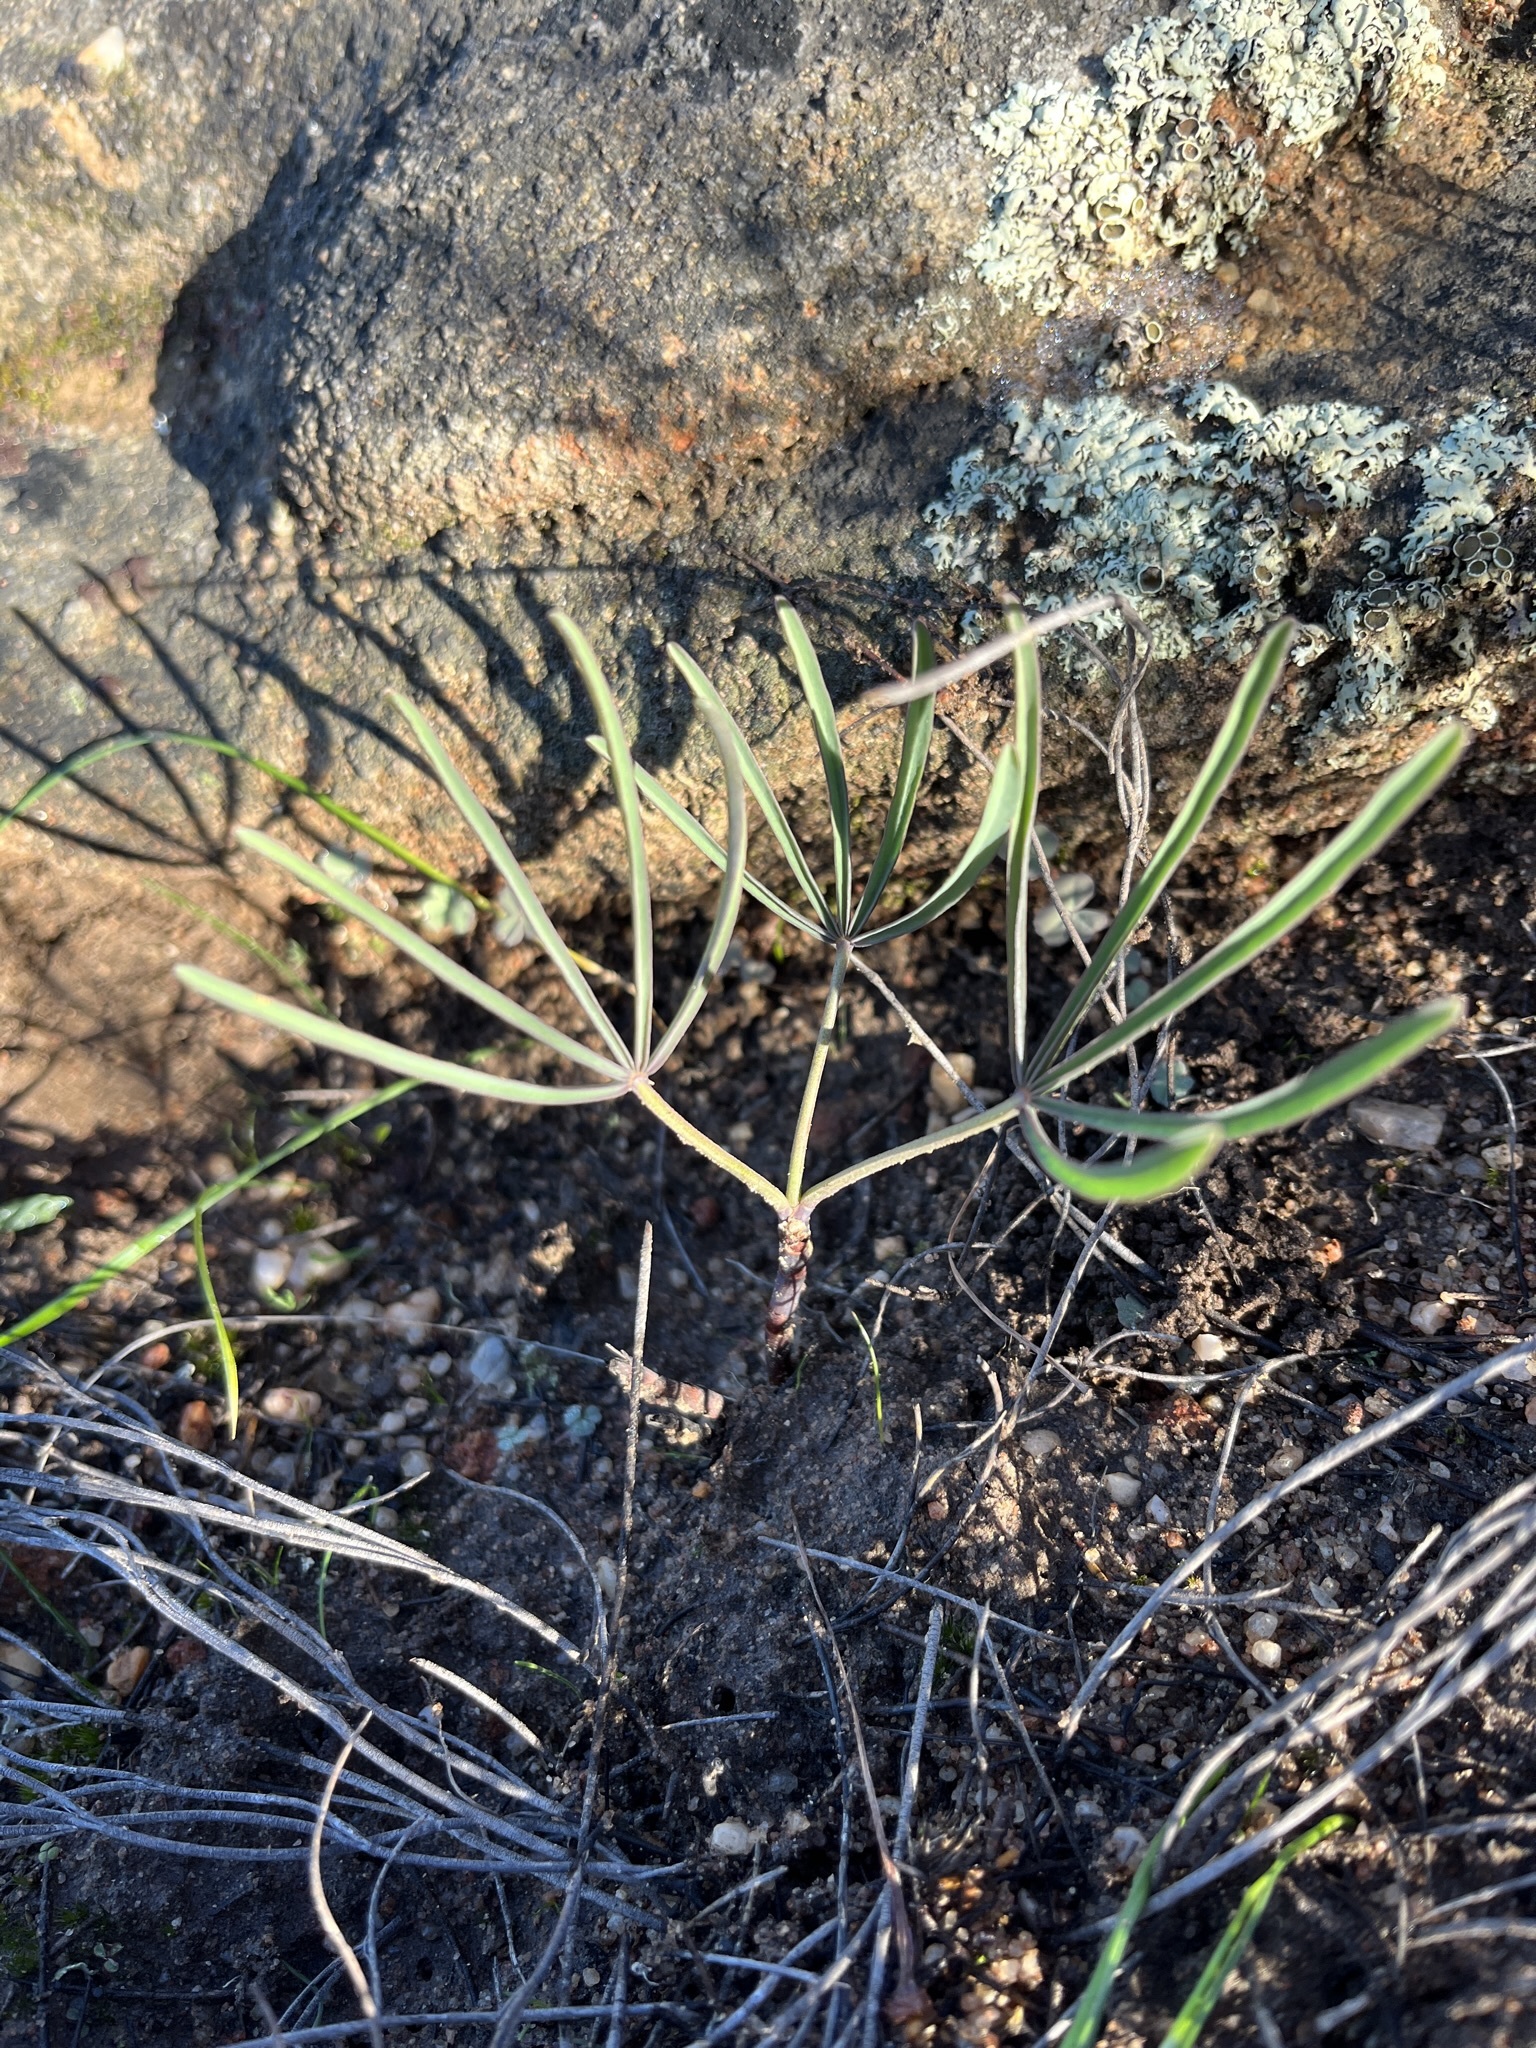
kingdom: Plantae
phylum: Tracheophyta
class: Magnoliopsida
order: Oxalidales
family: Oxalidaceae
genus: Oxalis
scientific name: Oxalis flava
